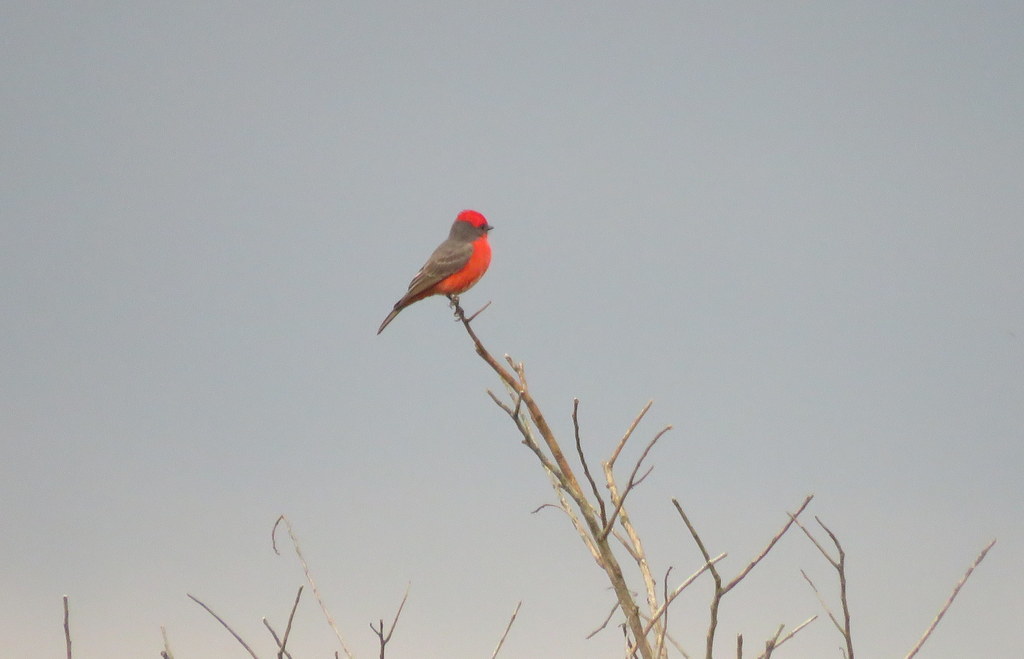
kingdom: Animalia
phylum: Chordata
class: Aves
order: Passeriformes
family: Tyrannidae
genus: Pyrocephalus
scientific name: Pyrocephalus rubinus
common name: Vermilion flycatcher
